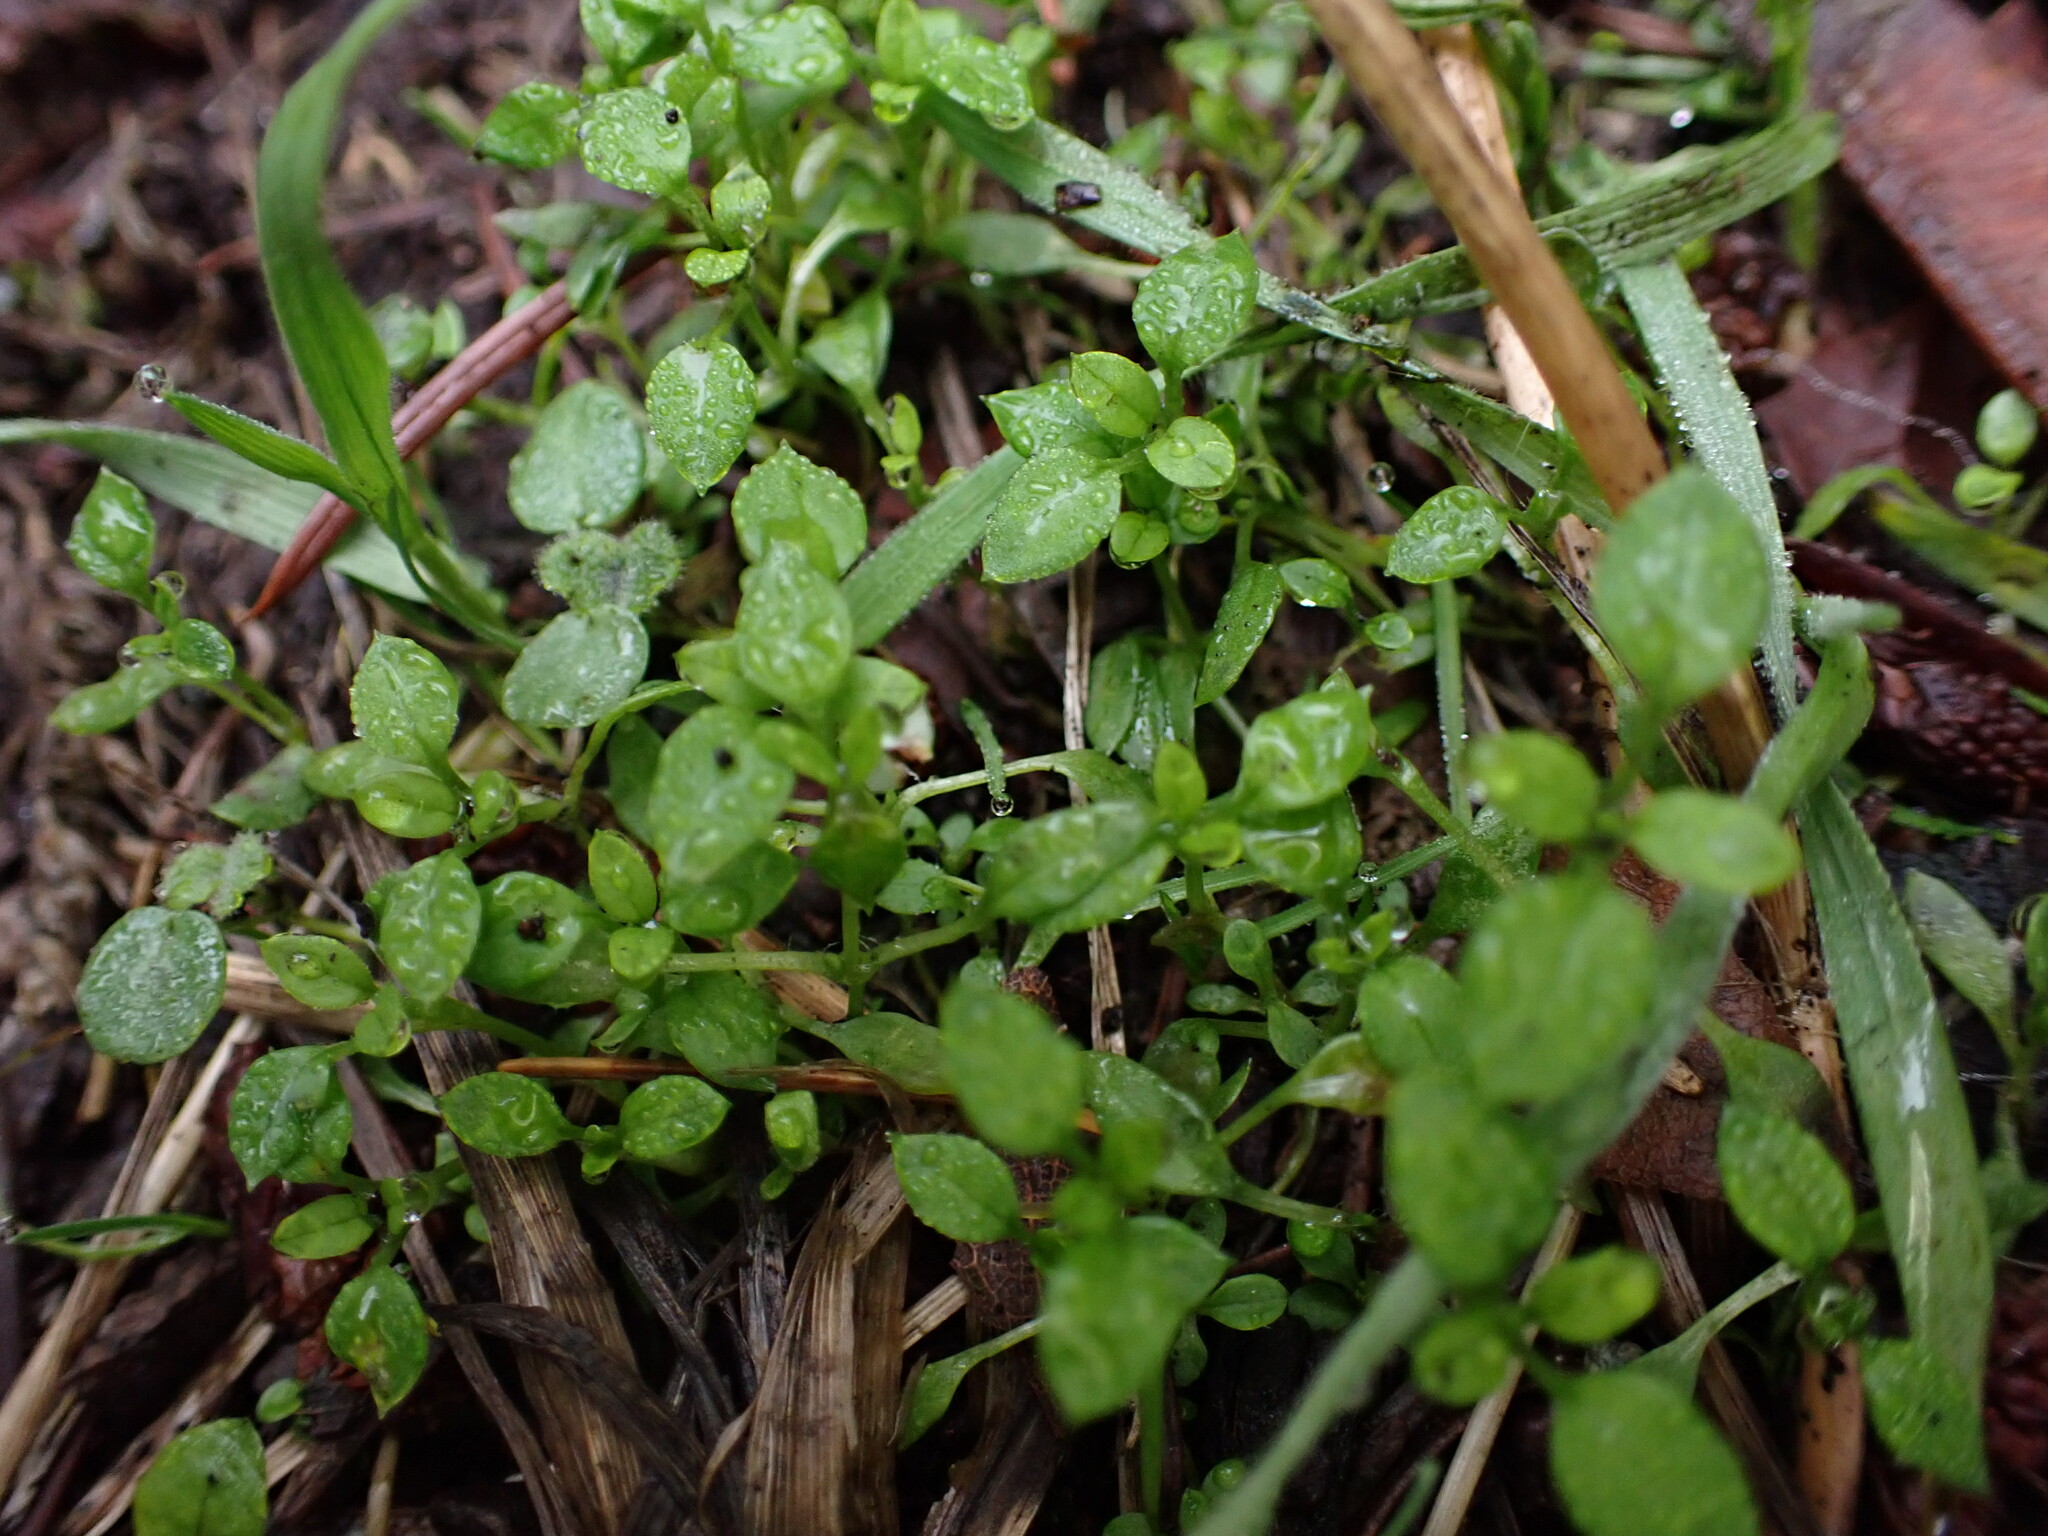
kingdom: Plantae
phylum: Tracheophyta
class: Magnoliopsida
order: Caryophyllales
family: Caryophyllaceae
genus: Stellaria
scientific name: Stellaria media
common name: Common chickweed
